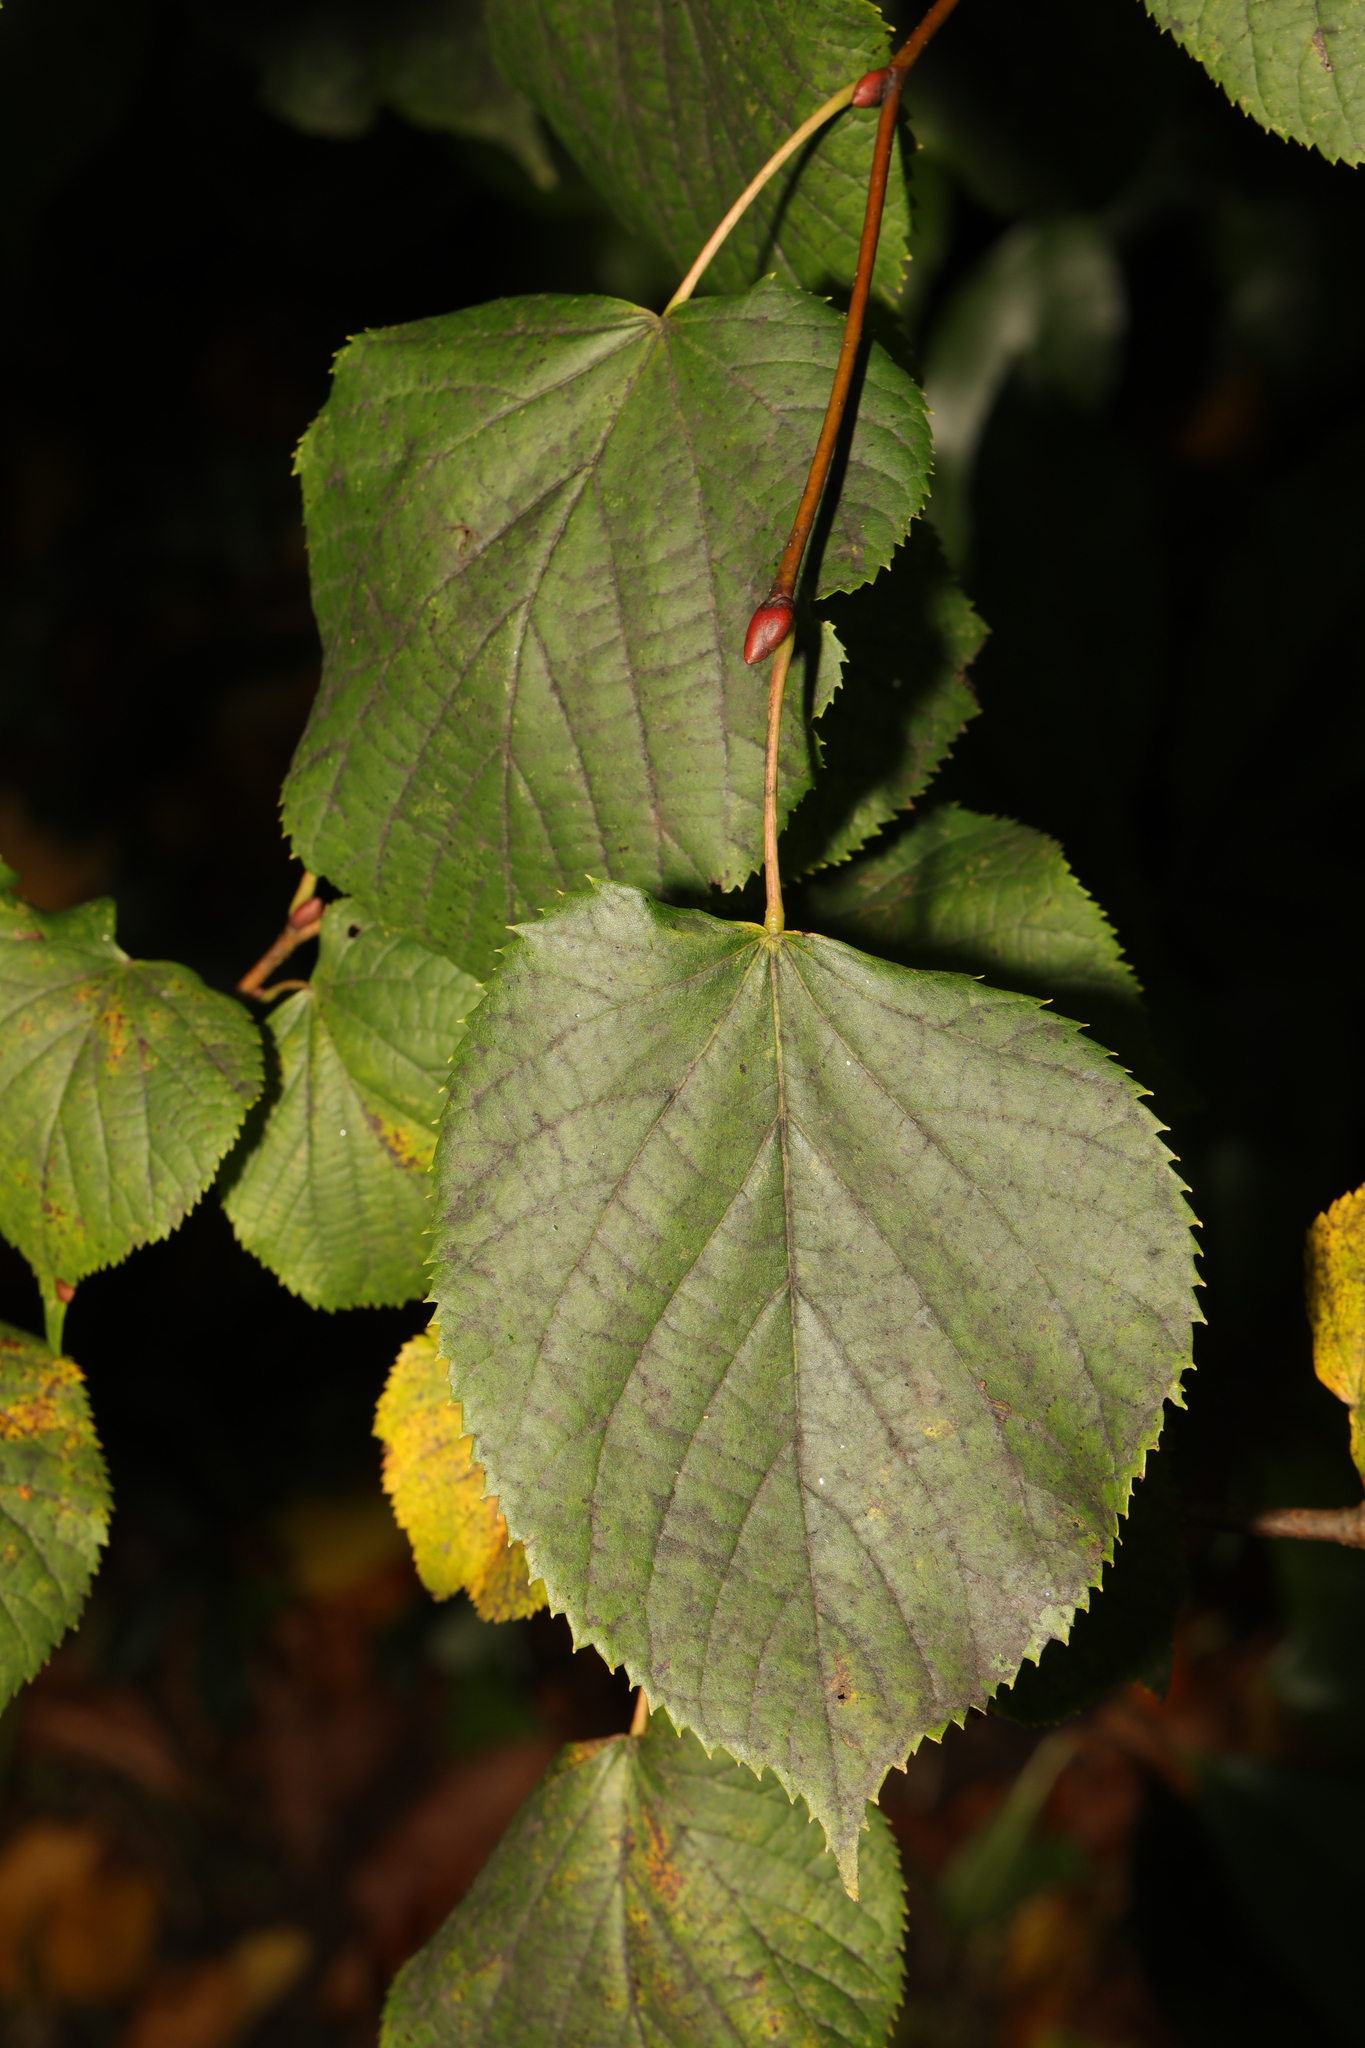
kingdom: Plantae
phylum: Tracheophyta
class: Magnoliopsida
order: Malvales
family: Malvaceae
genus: Tilia
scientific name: Tilia europaea
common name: European linden
